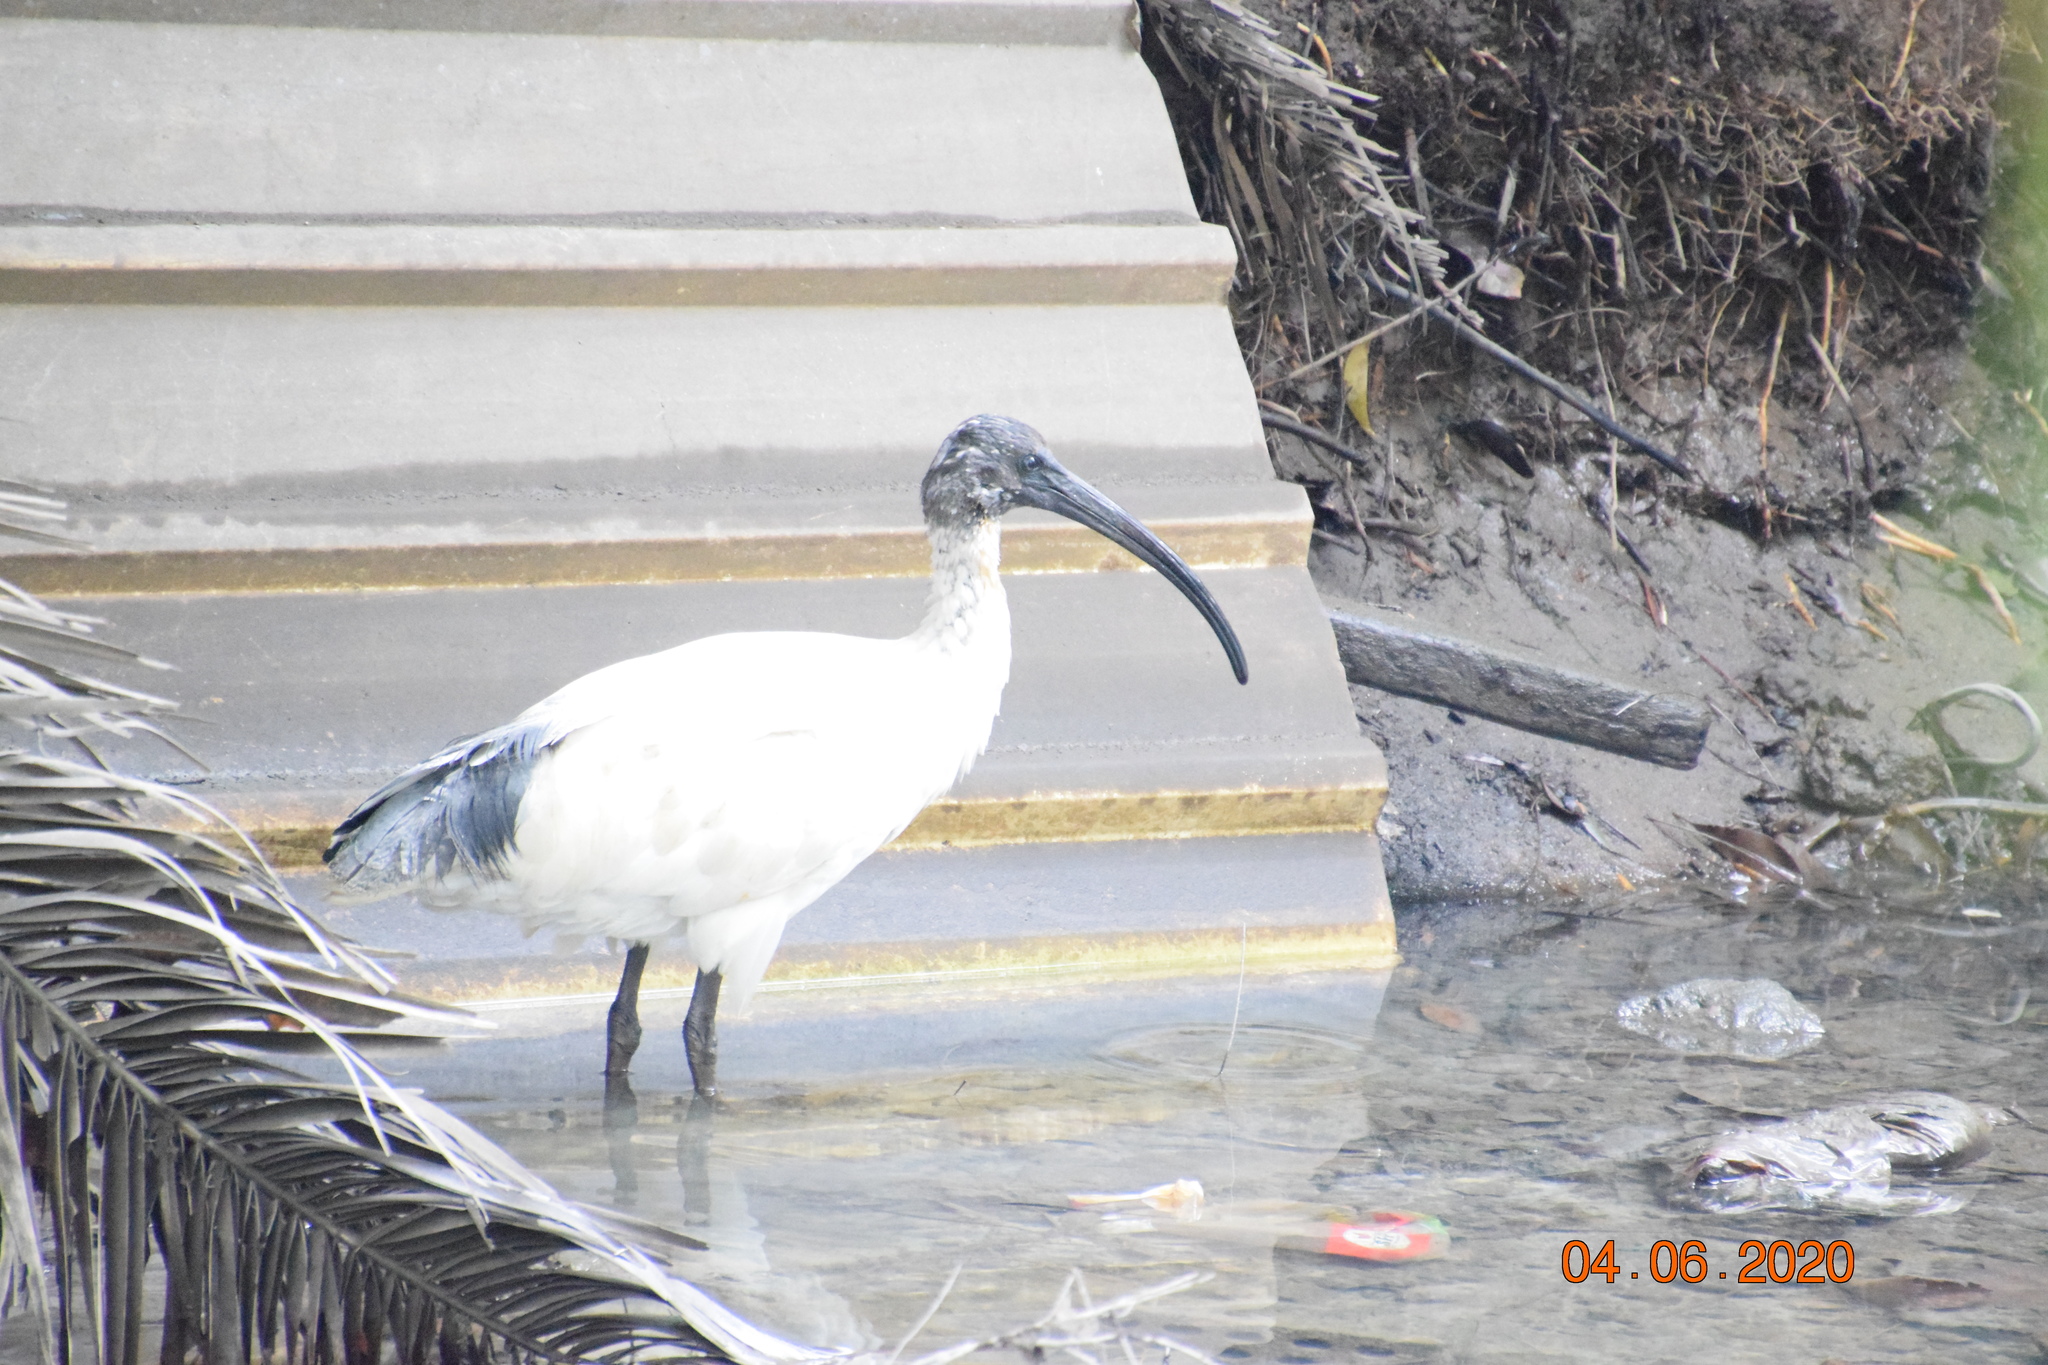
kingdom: Animalia
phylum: Chordata
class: Aves
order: Pelecaniformes
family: Threskiornithidae
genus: Threskiornis
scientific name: Threskiornis molucca
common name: Australian white ibis
